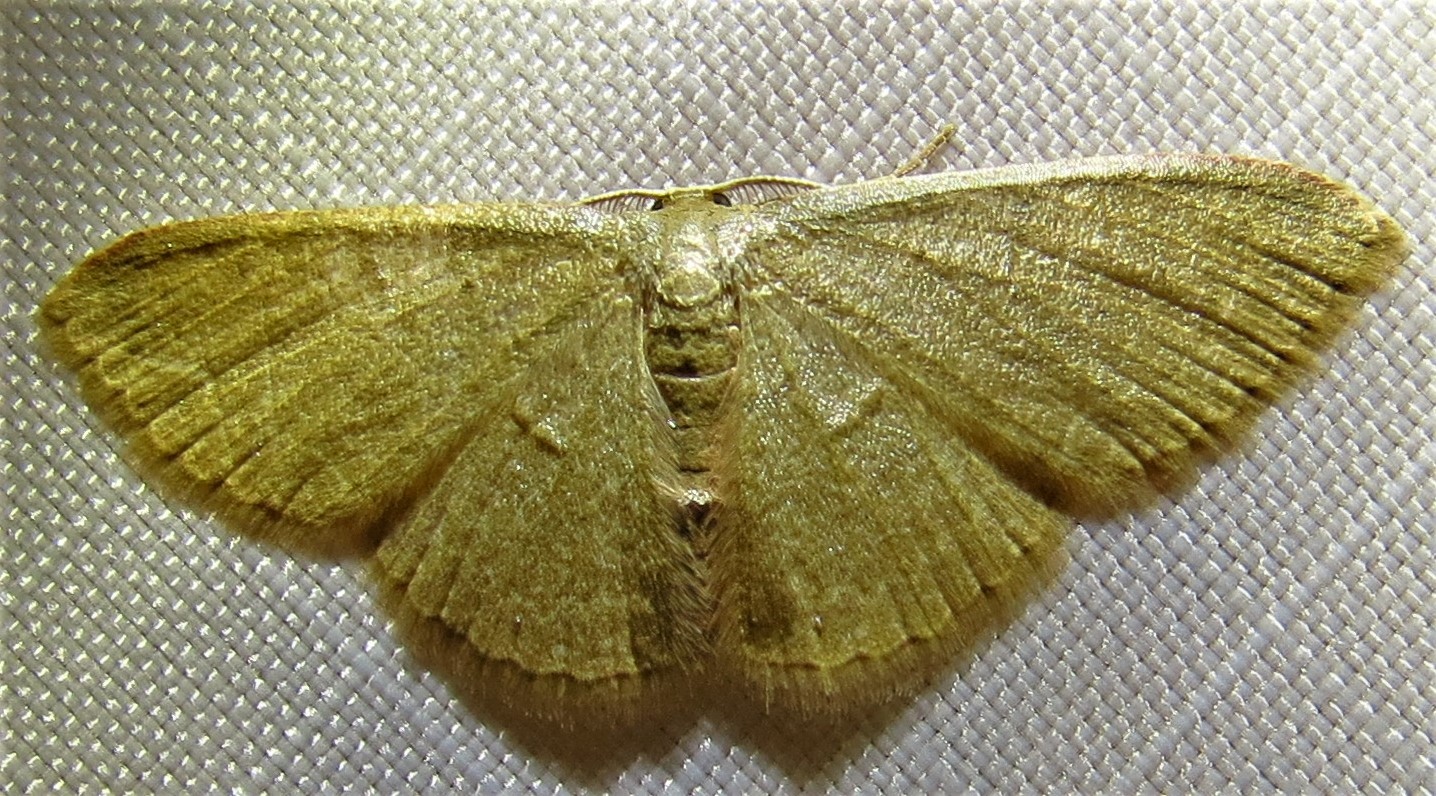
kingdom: Animalia
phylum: Arthropoda
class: Insecta
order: Lepidoptera
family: Geometridae
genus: Pleuroprucha
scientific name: Pleuroprucha insulsaria
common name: Common tan wave
